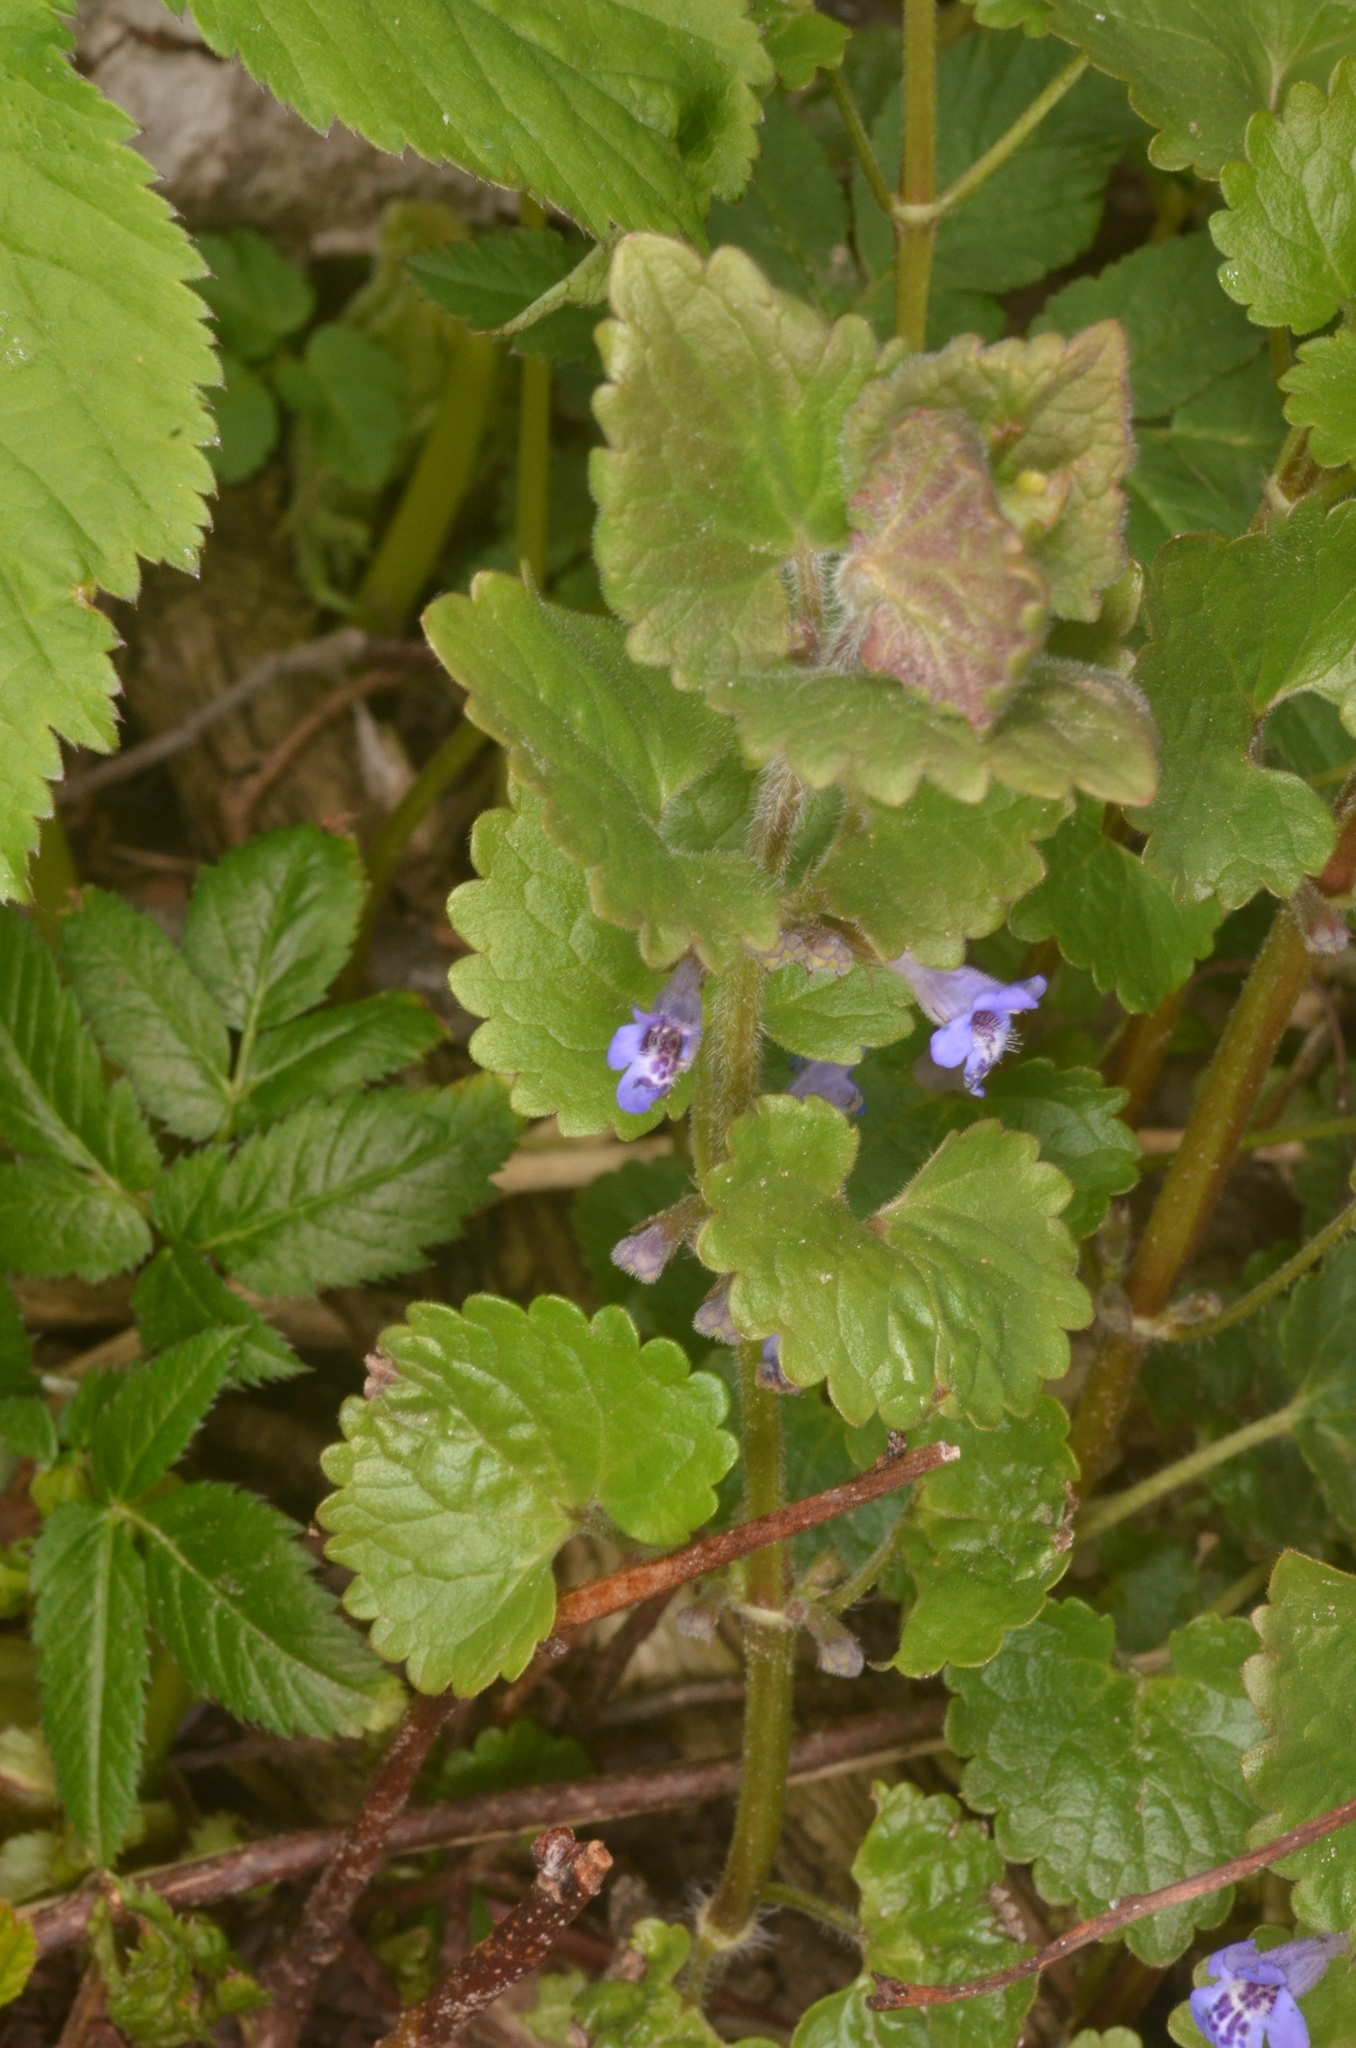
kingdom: Plantae
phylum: Tracheophyta
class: Magnoliopsida
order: Lamiales
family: Lamiaceae
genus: Glechoma
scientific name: Glechoma hederacea
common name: Ground ivy
